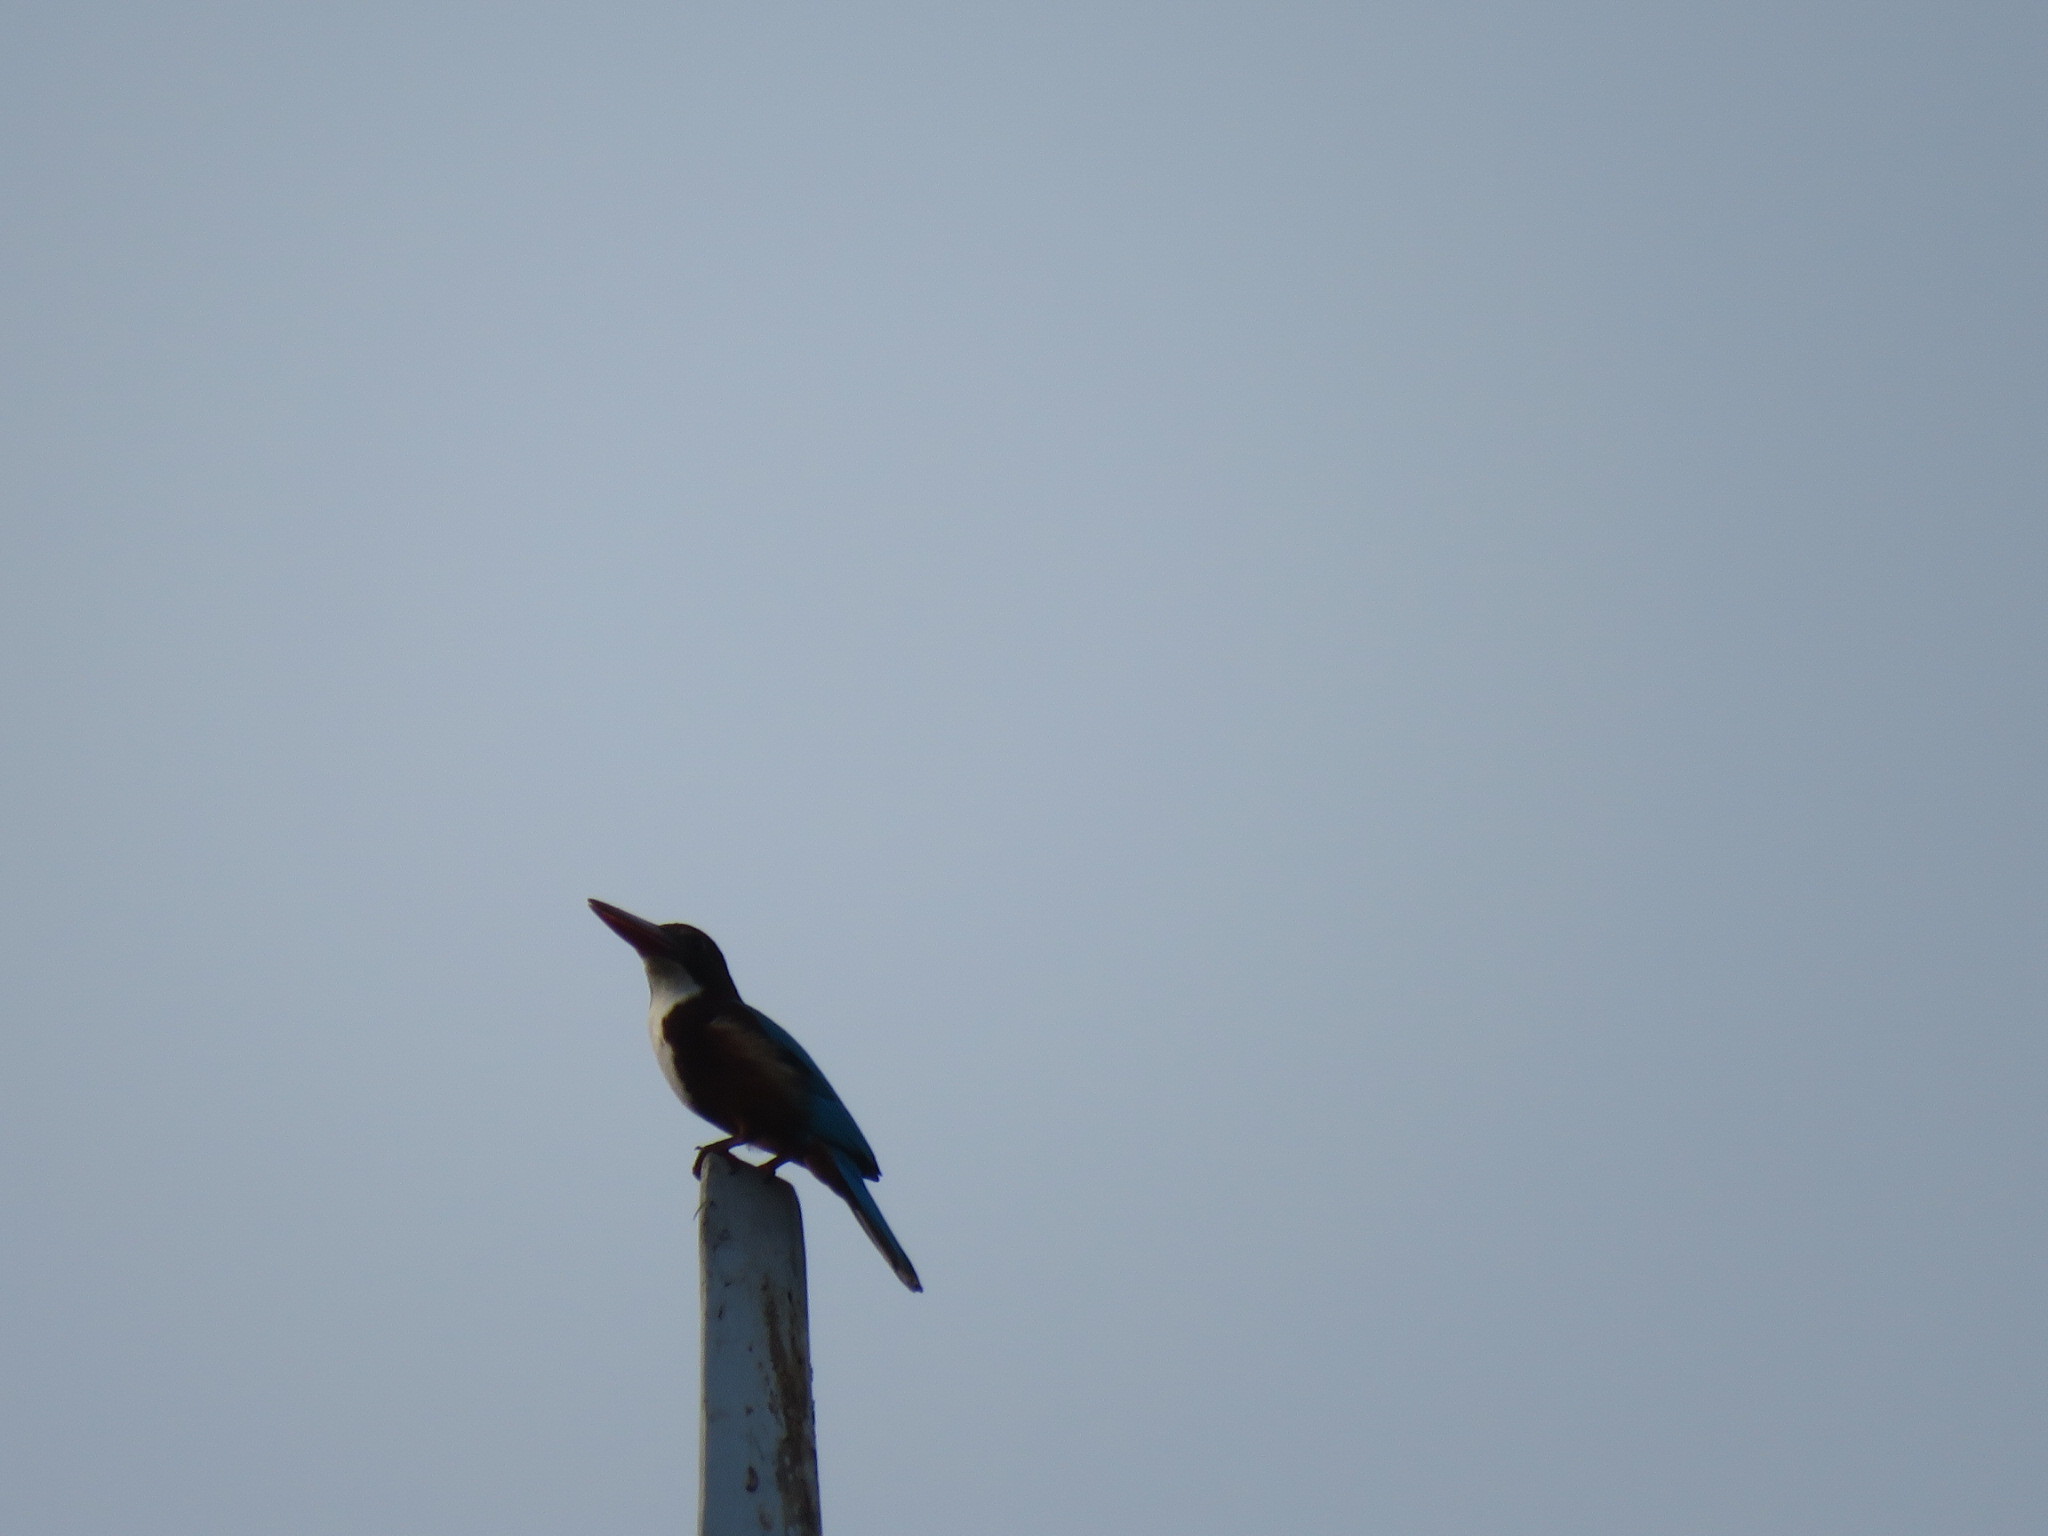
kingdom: Animalia
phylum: Chordata
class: Aves
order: Coraciiformes
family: Alcedinidae
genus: Halcyon
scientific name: Halcyon smyrnensis
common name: White-throated kingfisher
